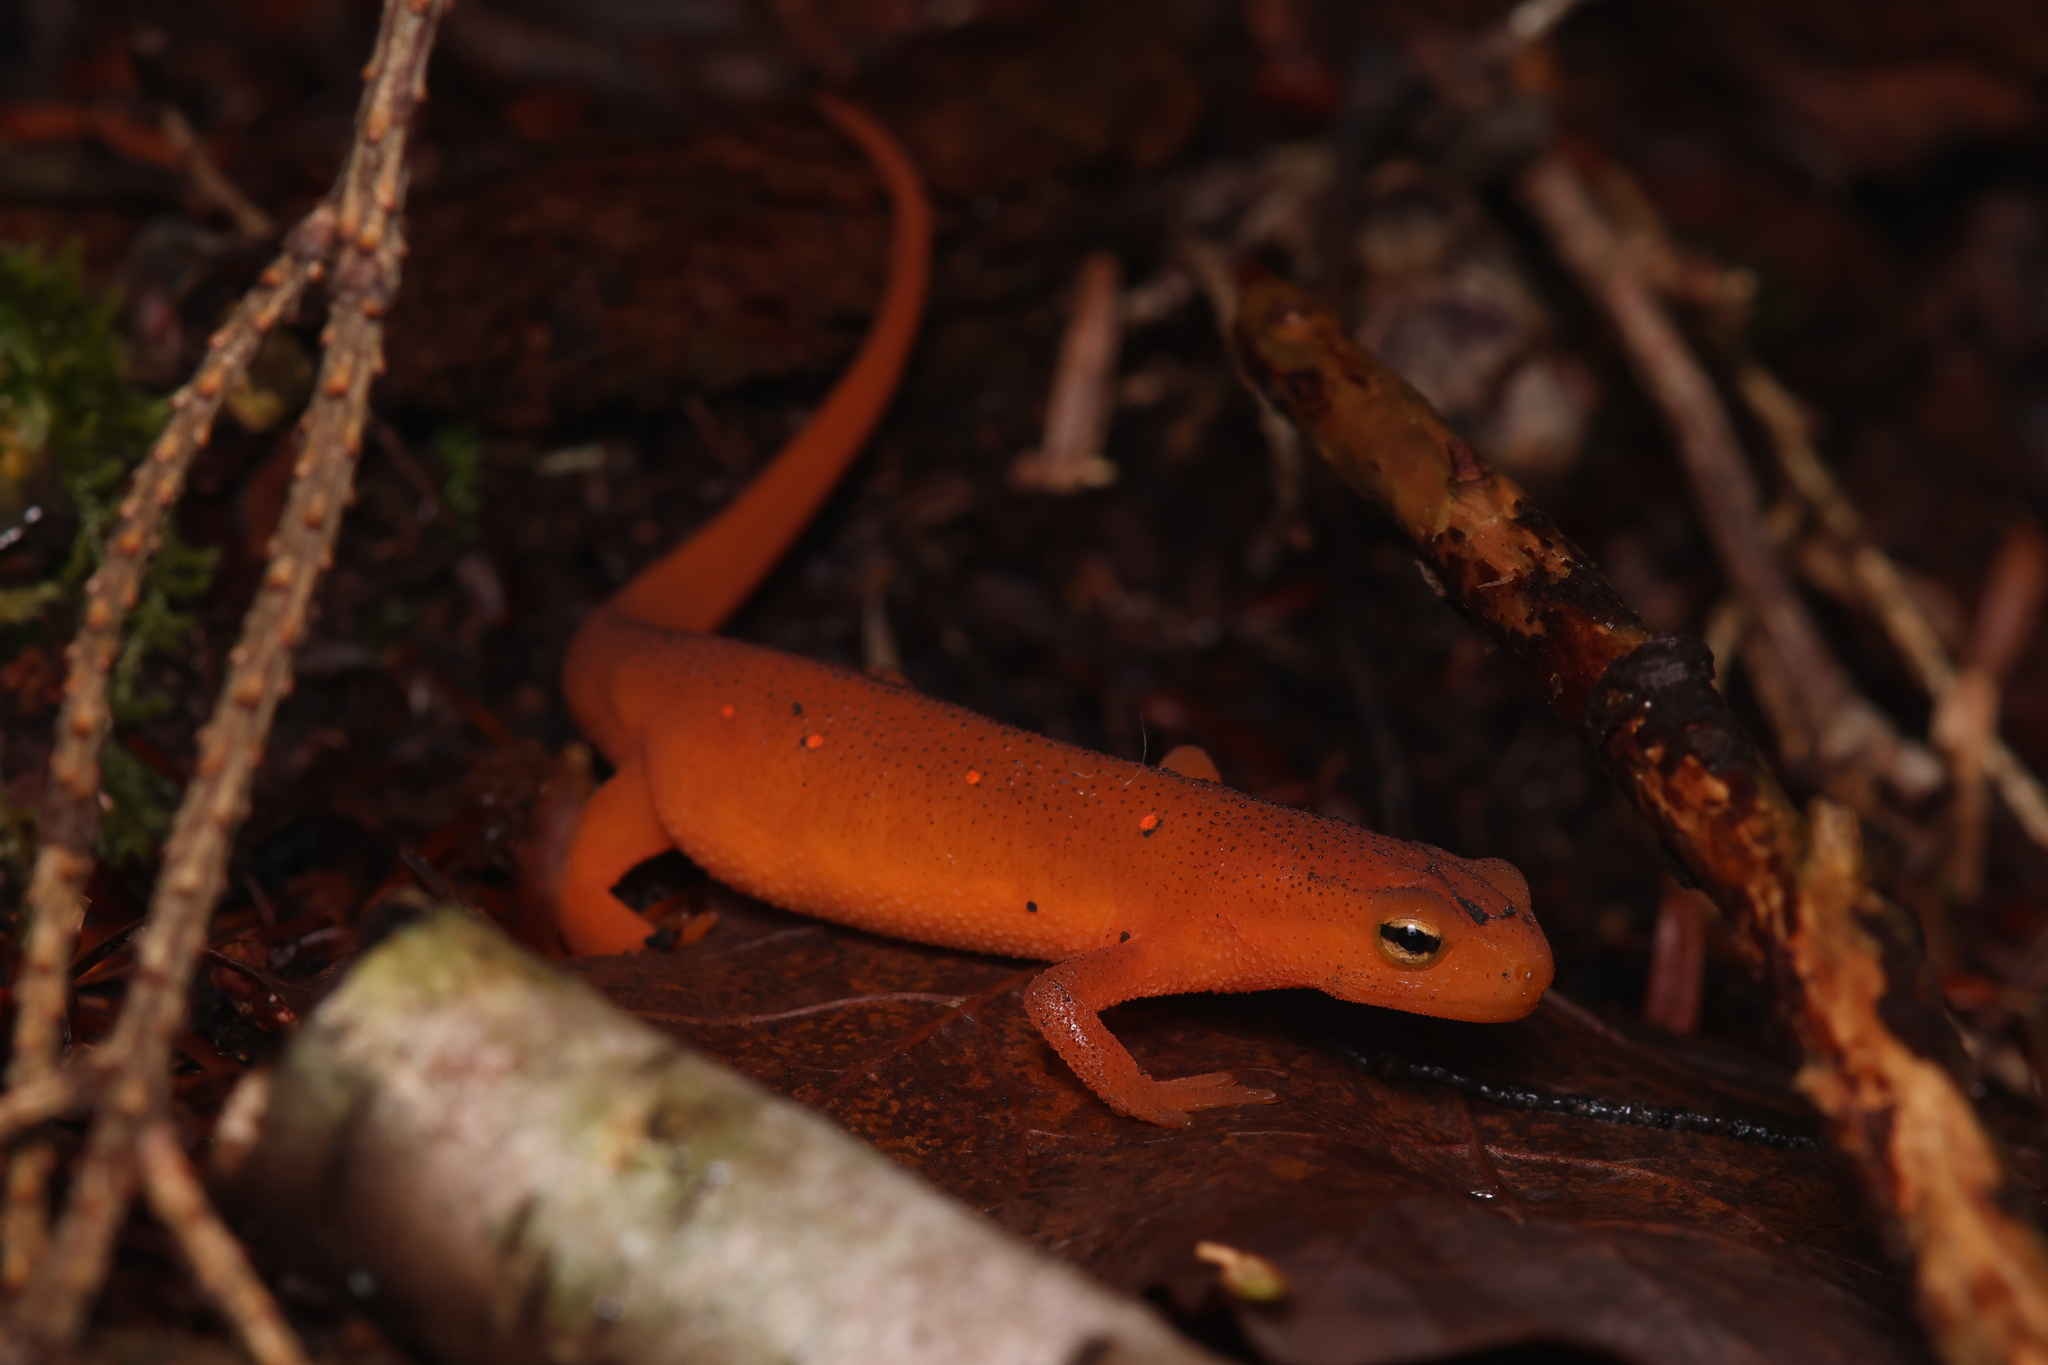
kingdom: Animalia
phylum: Chordata
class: Amphibia
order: Caudata
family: Salamandridae
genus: Notophthalmus
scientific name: Notophthalmus viridescens
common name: Eastern newt
